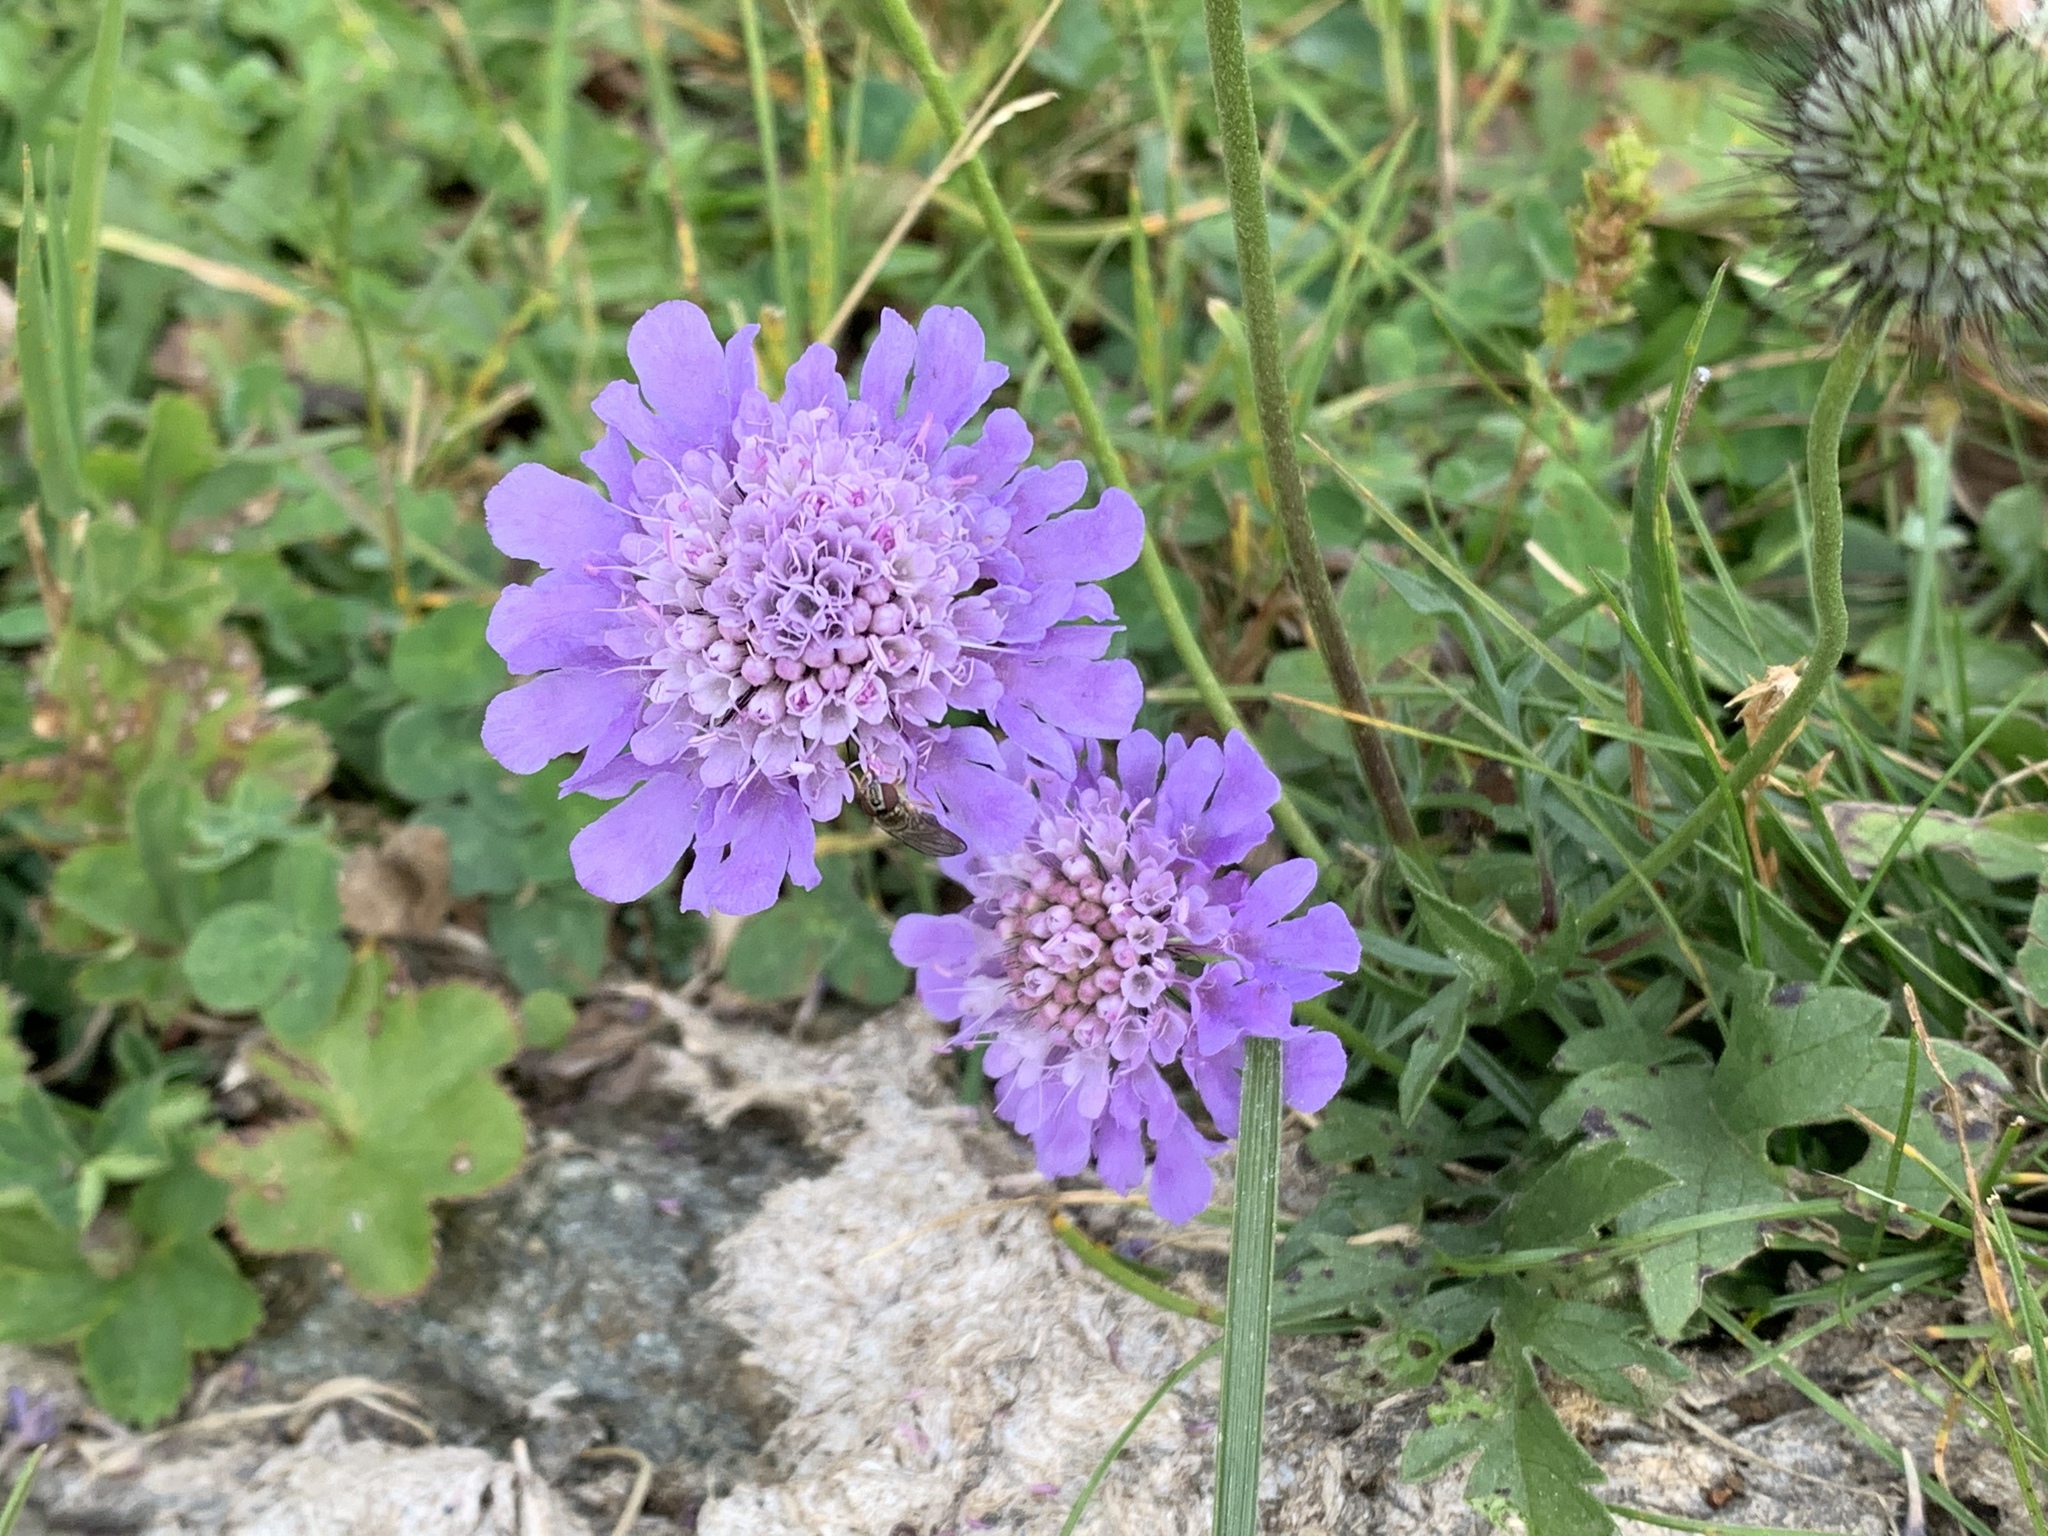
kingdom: Plantae
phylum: Tracheophyta
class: Magnoliopsida
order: Dipsacales
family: Caprifoliaceae
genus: Knautia
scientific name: Knautia arvensis
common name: Field scabiosa
